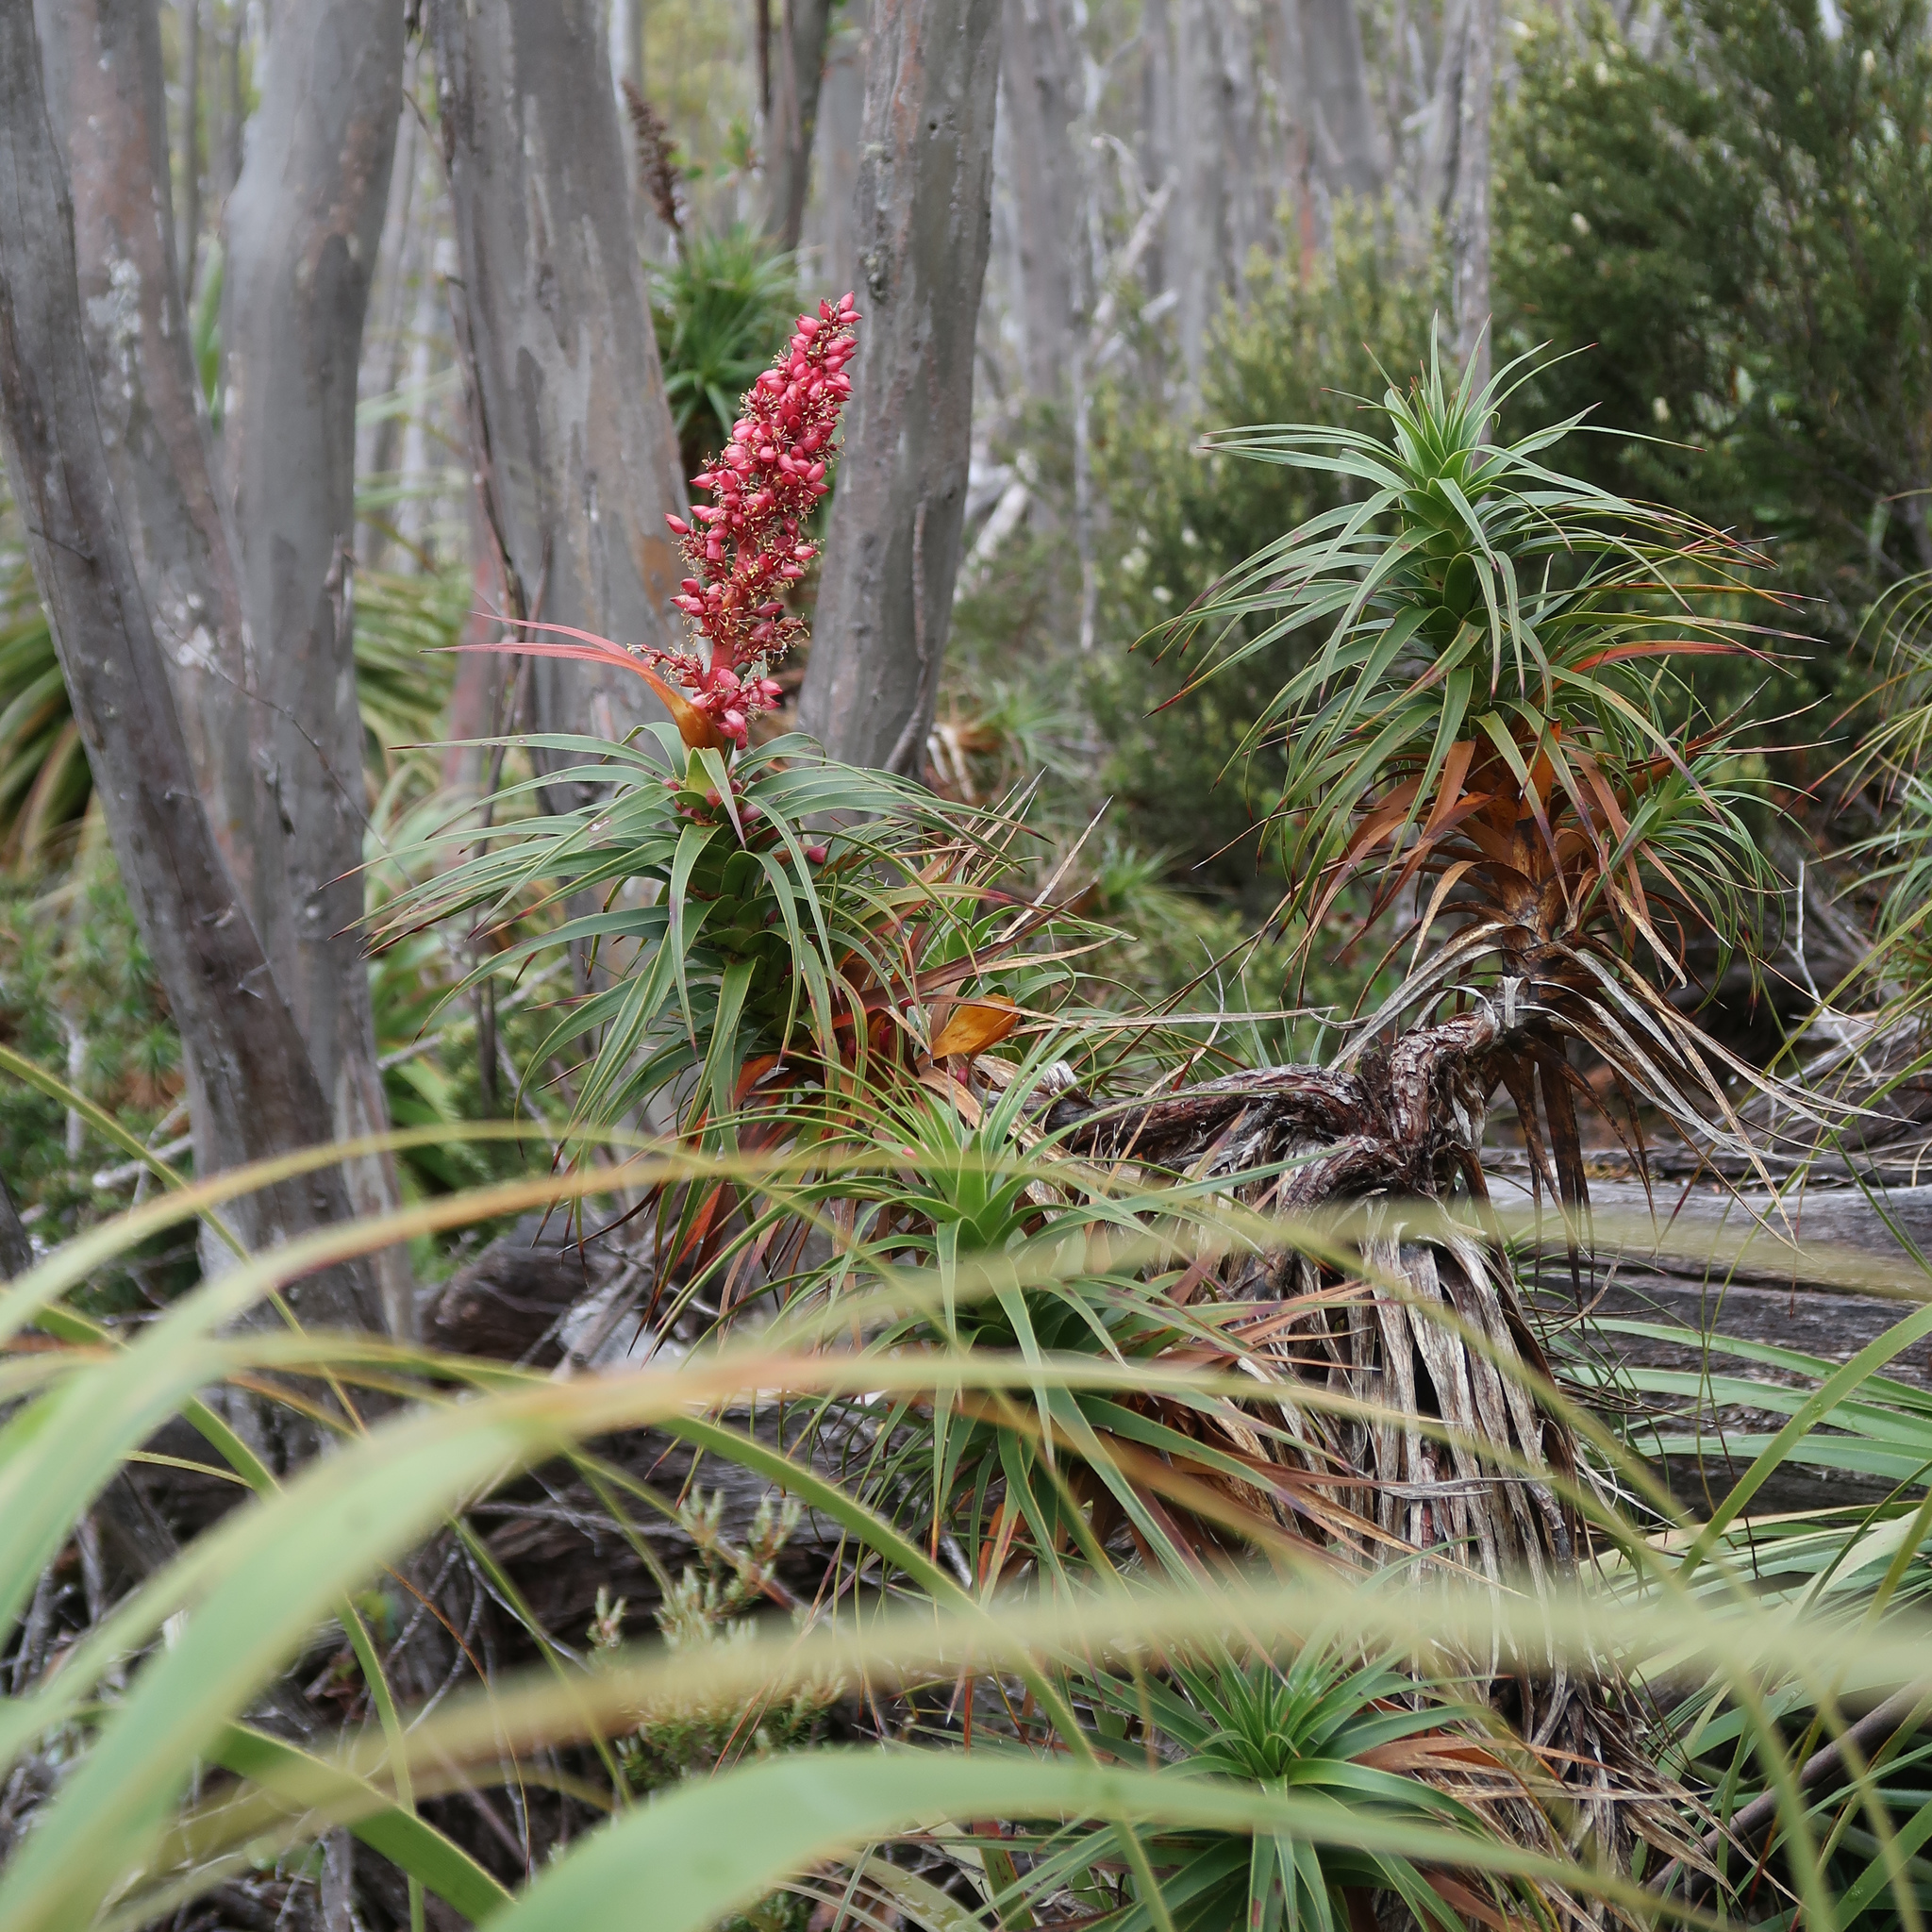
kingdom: Plantae
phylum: Tracheophyta
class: Magnoliopsida
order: Ericales
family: Ericaceae
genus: Richea
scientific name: Richea curtisiae
